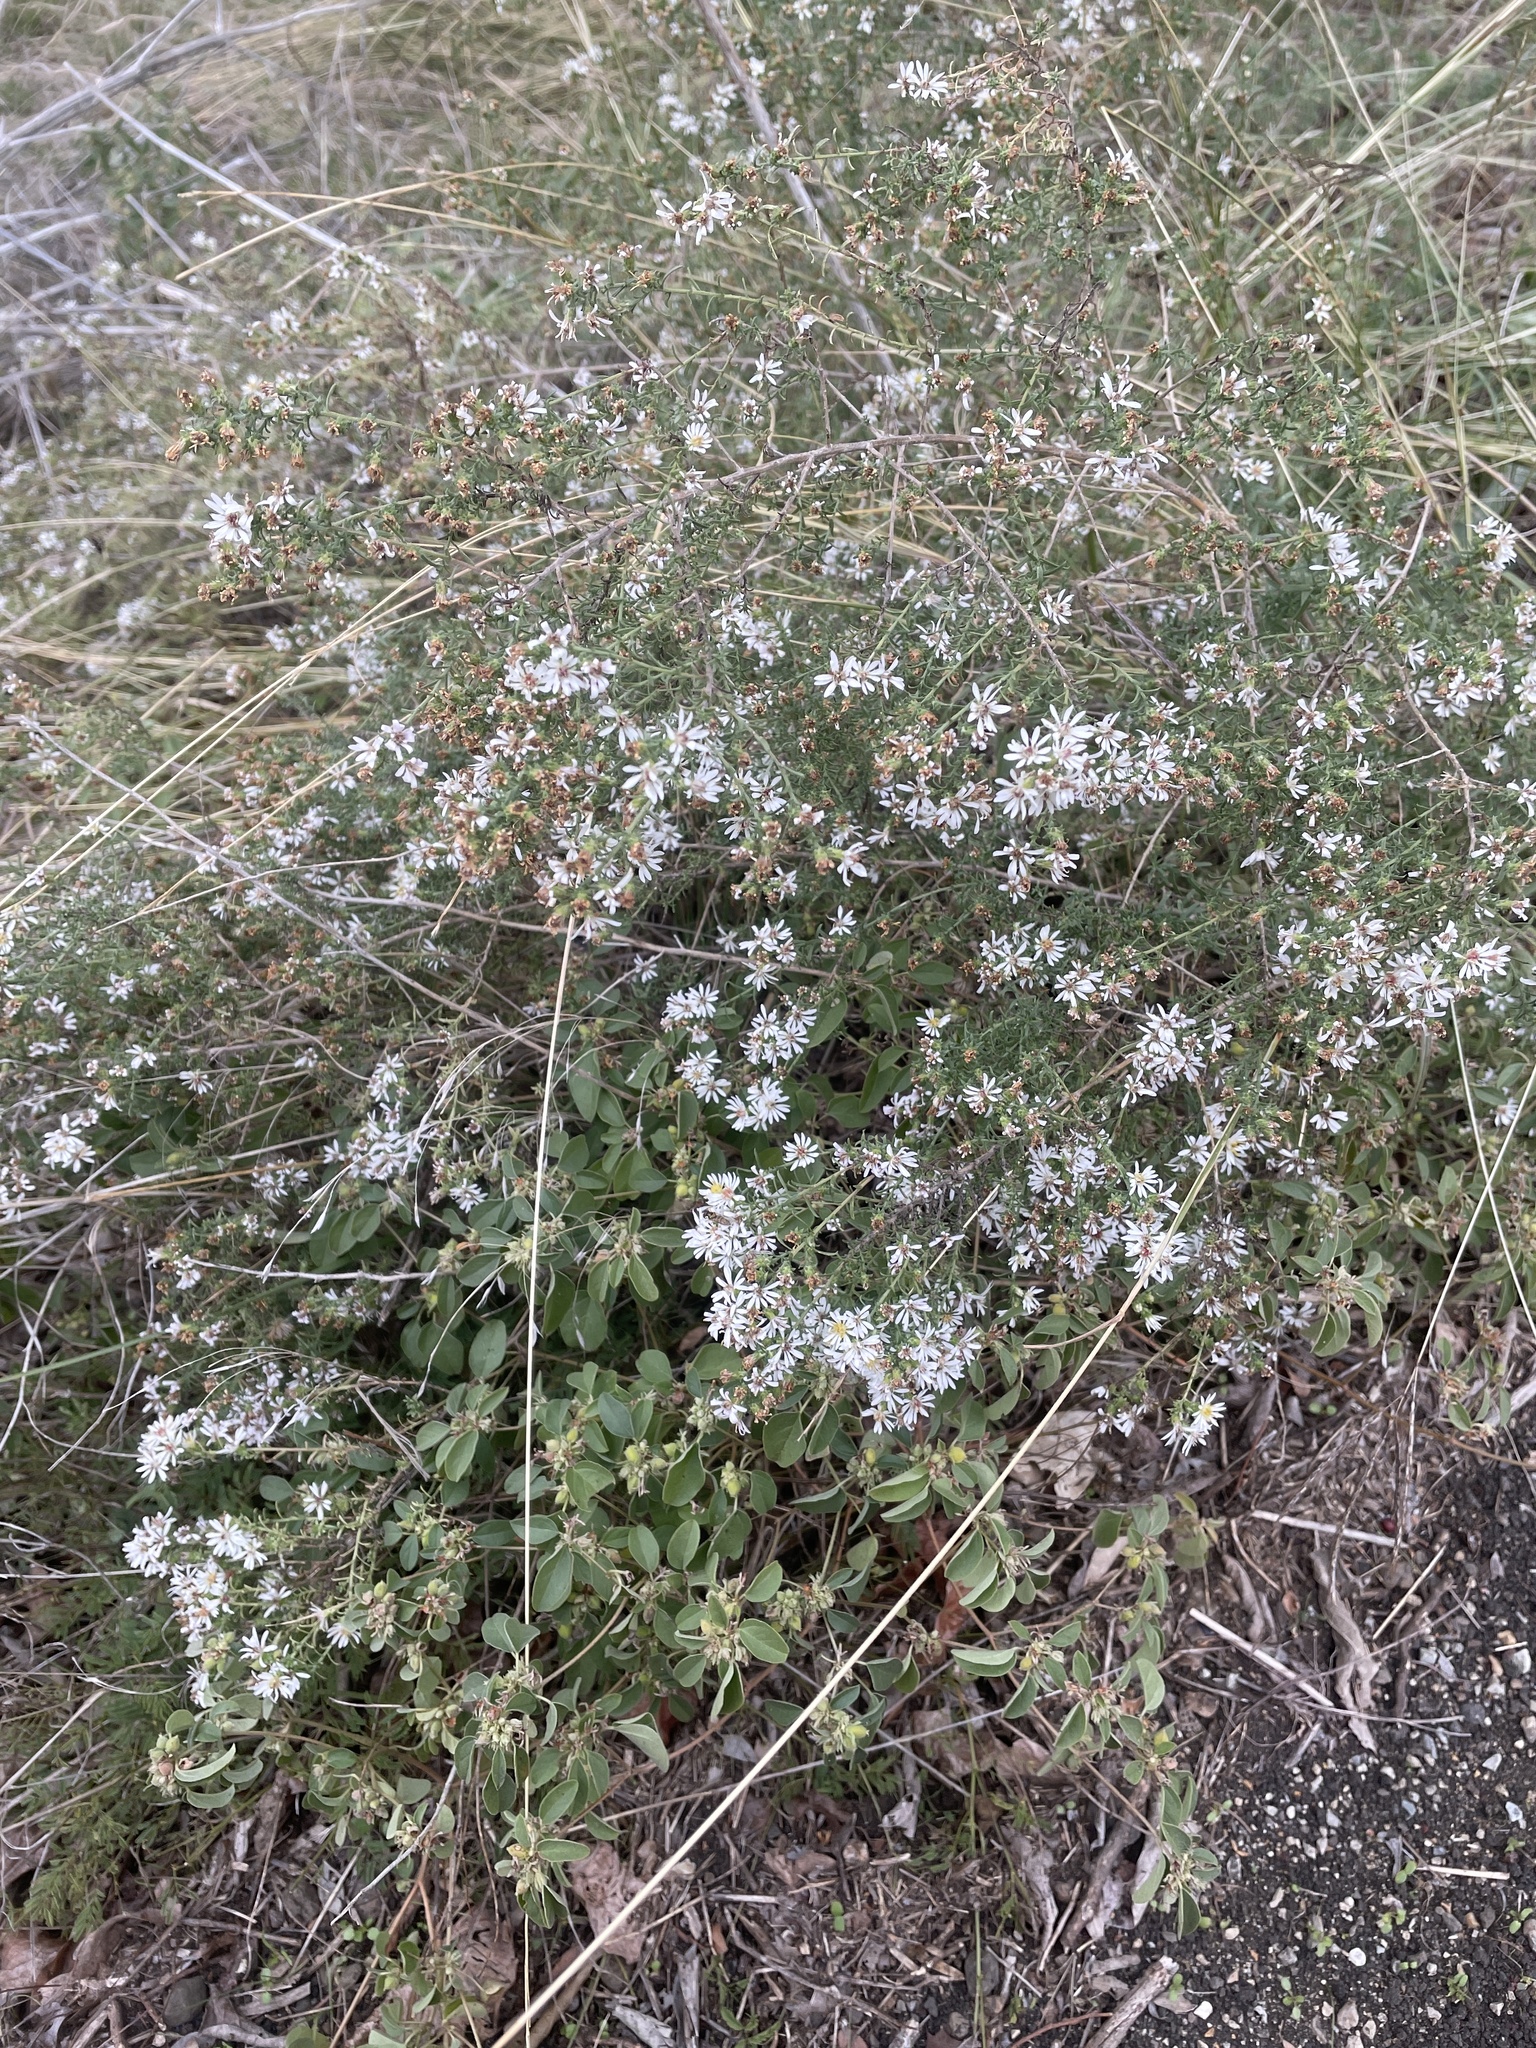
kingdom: Plantae
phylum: Tracheophyta
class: Magnoliopsida
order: Asterales
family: Asteraceae
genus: Symphyotrichum
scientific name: Symphyotrichum ericoides
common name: Heath aster
